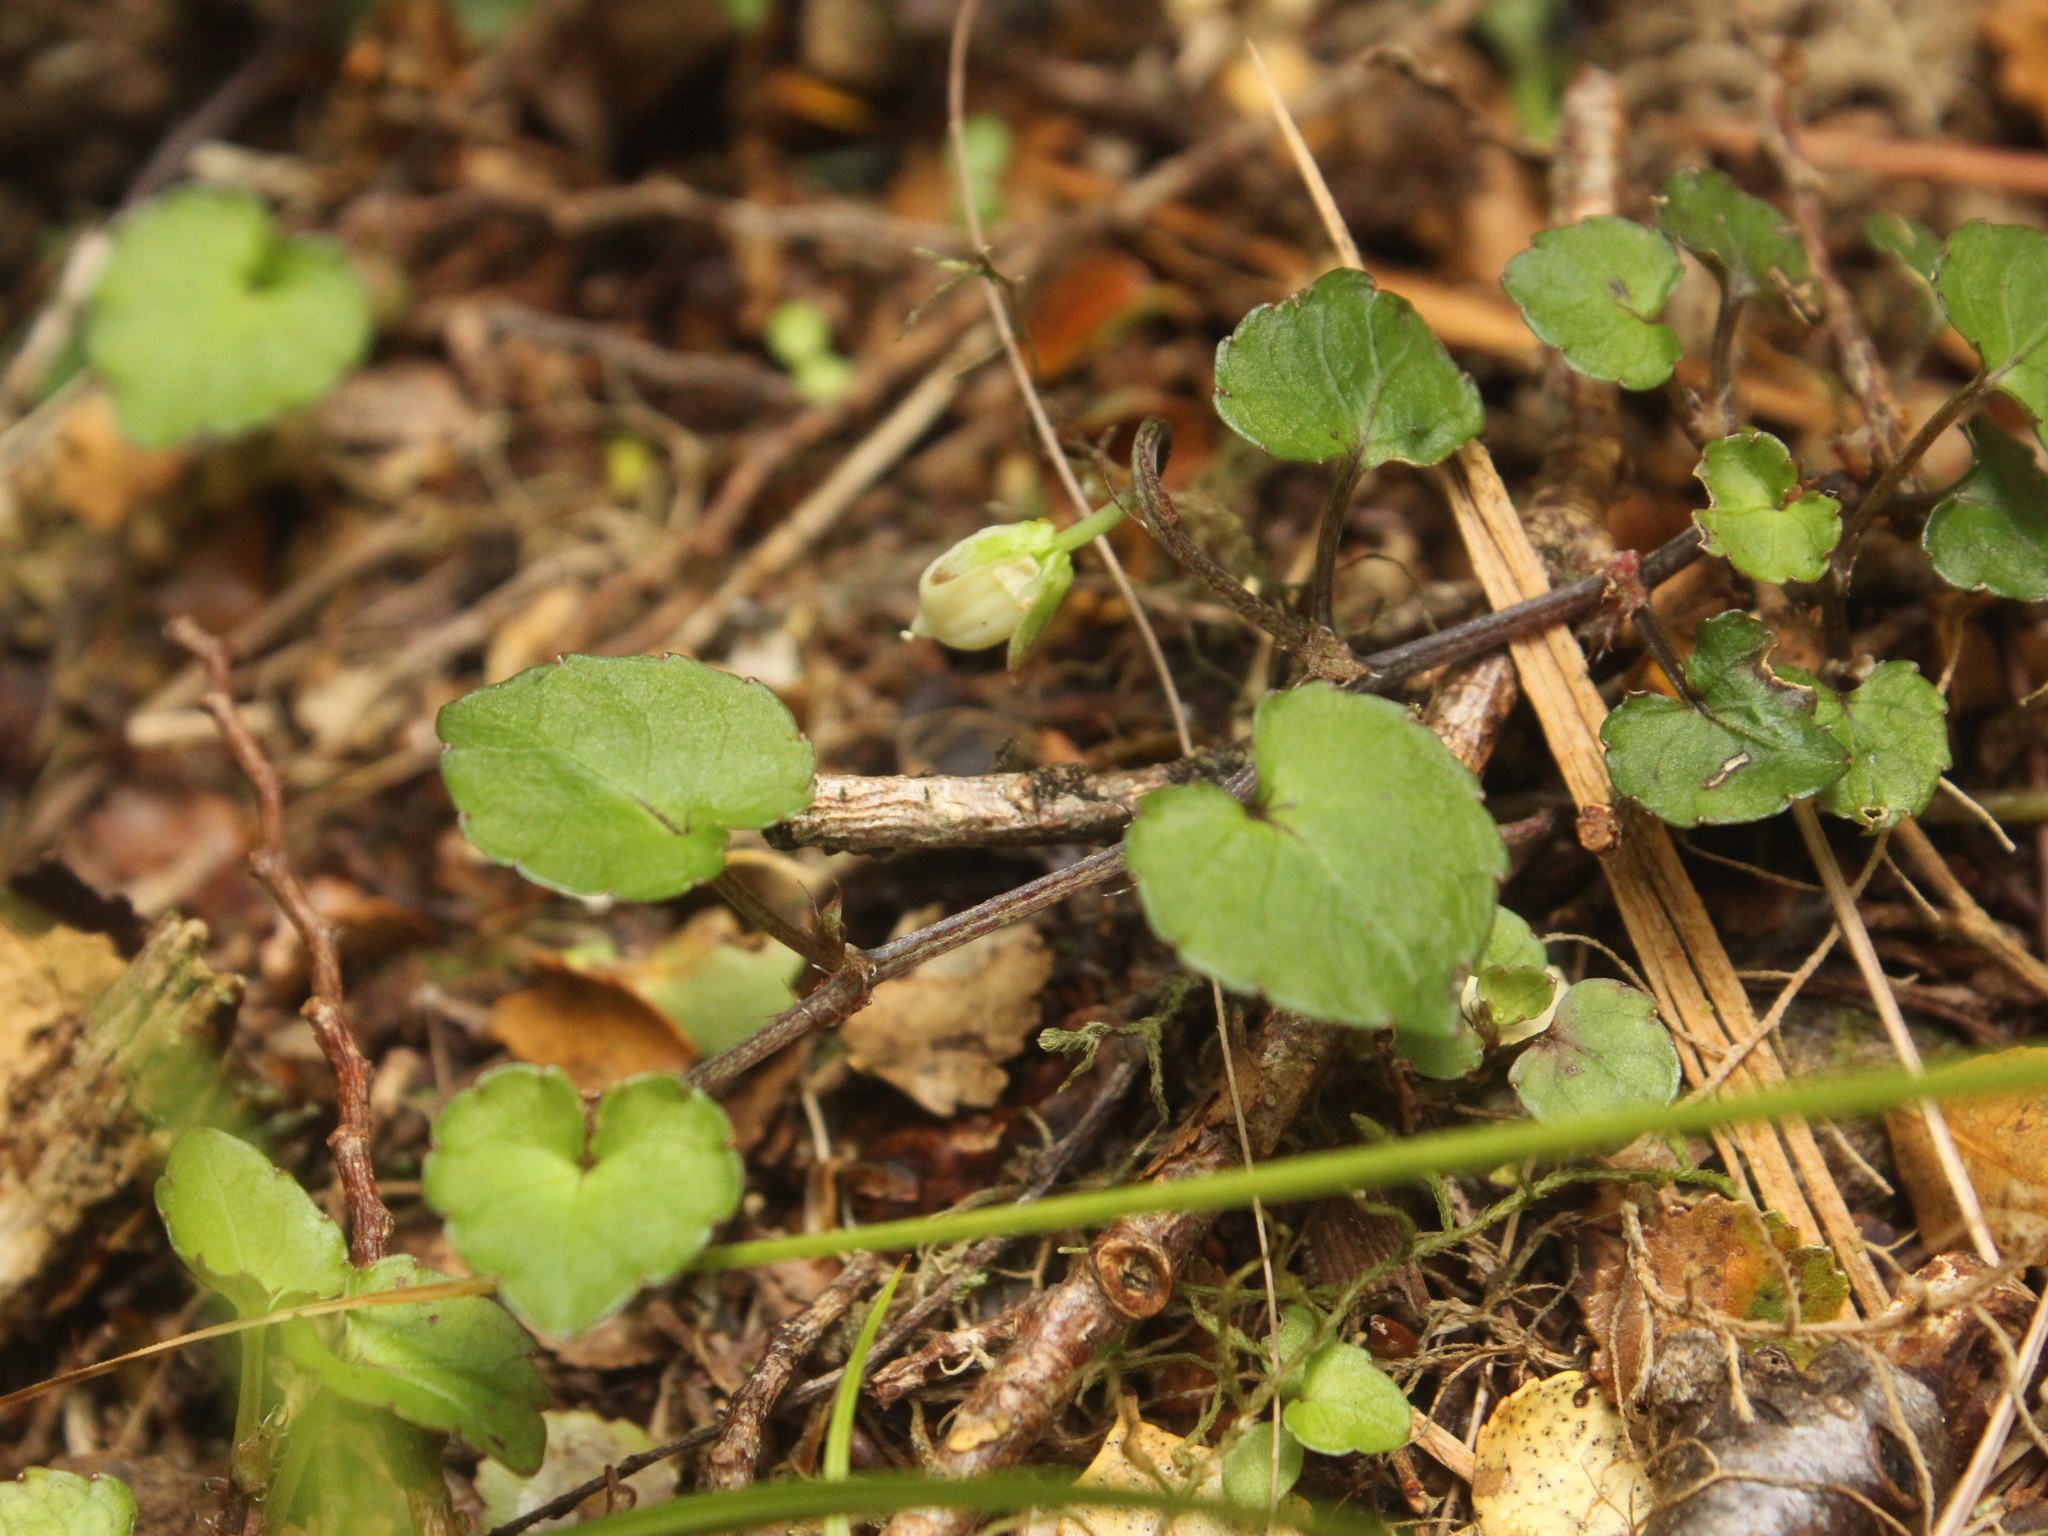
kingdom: Plantae
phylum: Tracheophyta
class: Magnoliopsida
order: Malpighiales
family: Violaceae
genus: Viola
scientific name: Viola filicaulis
